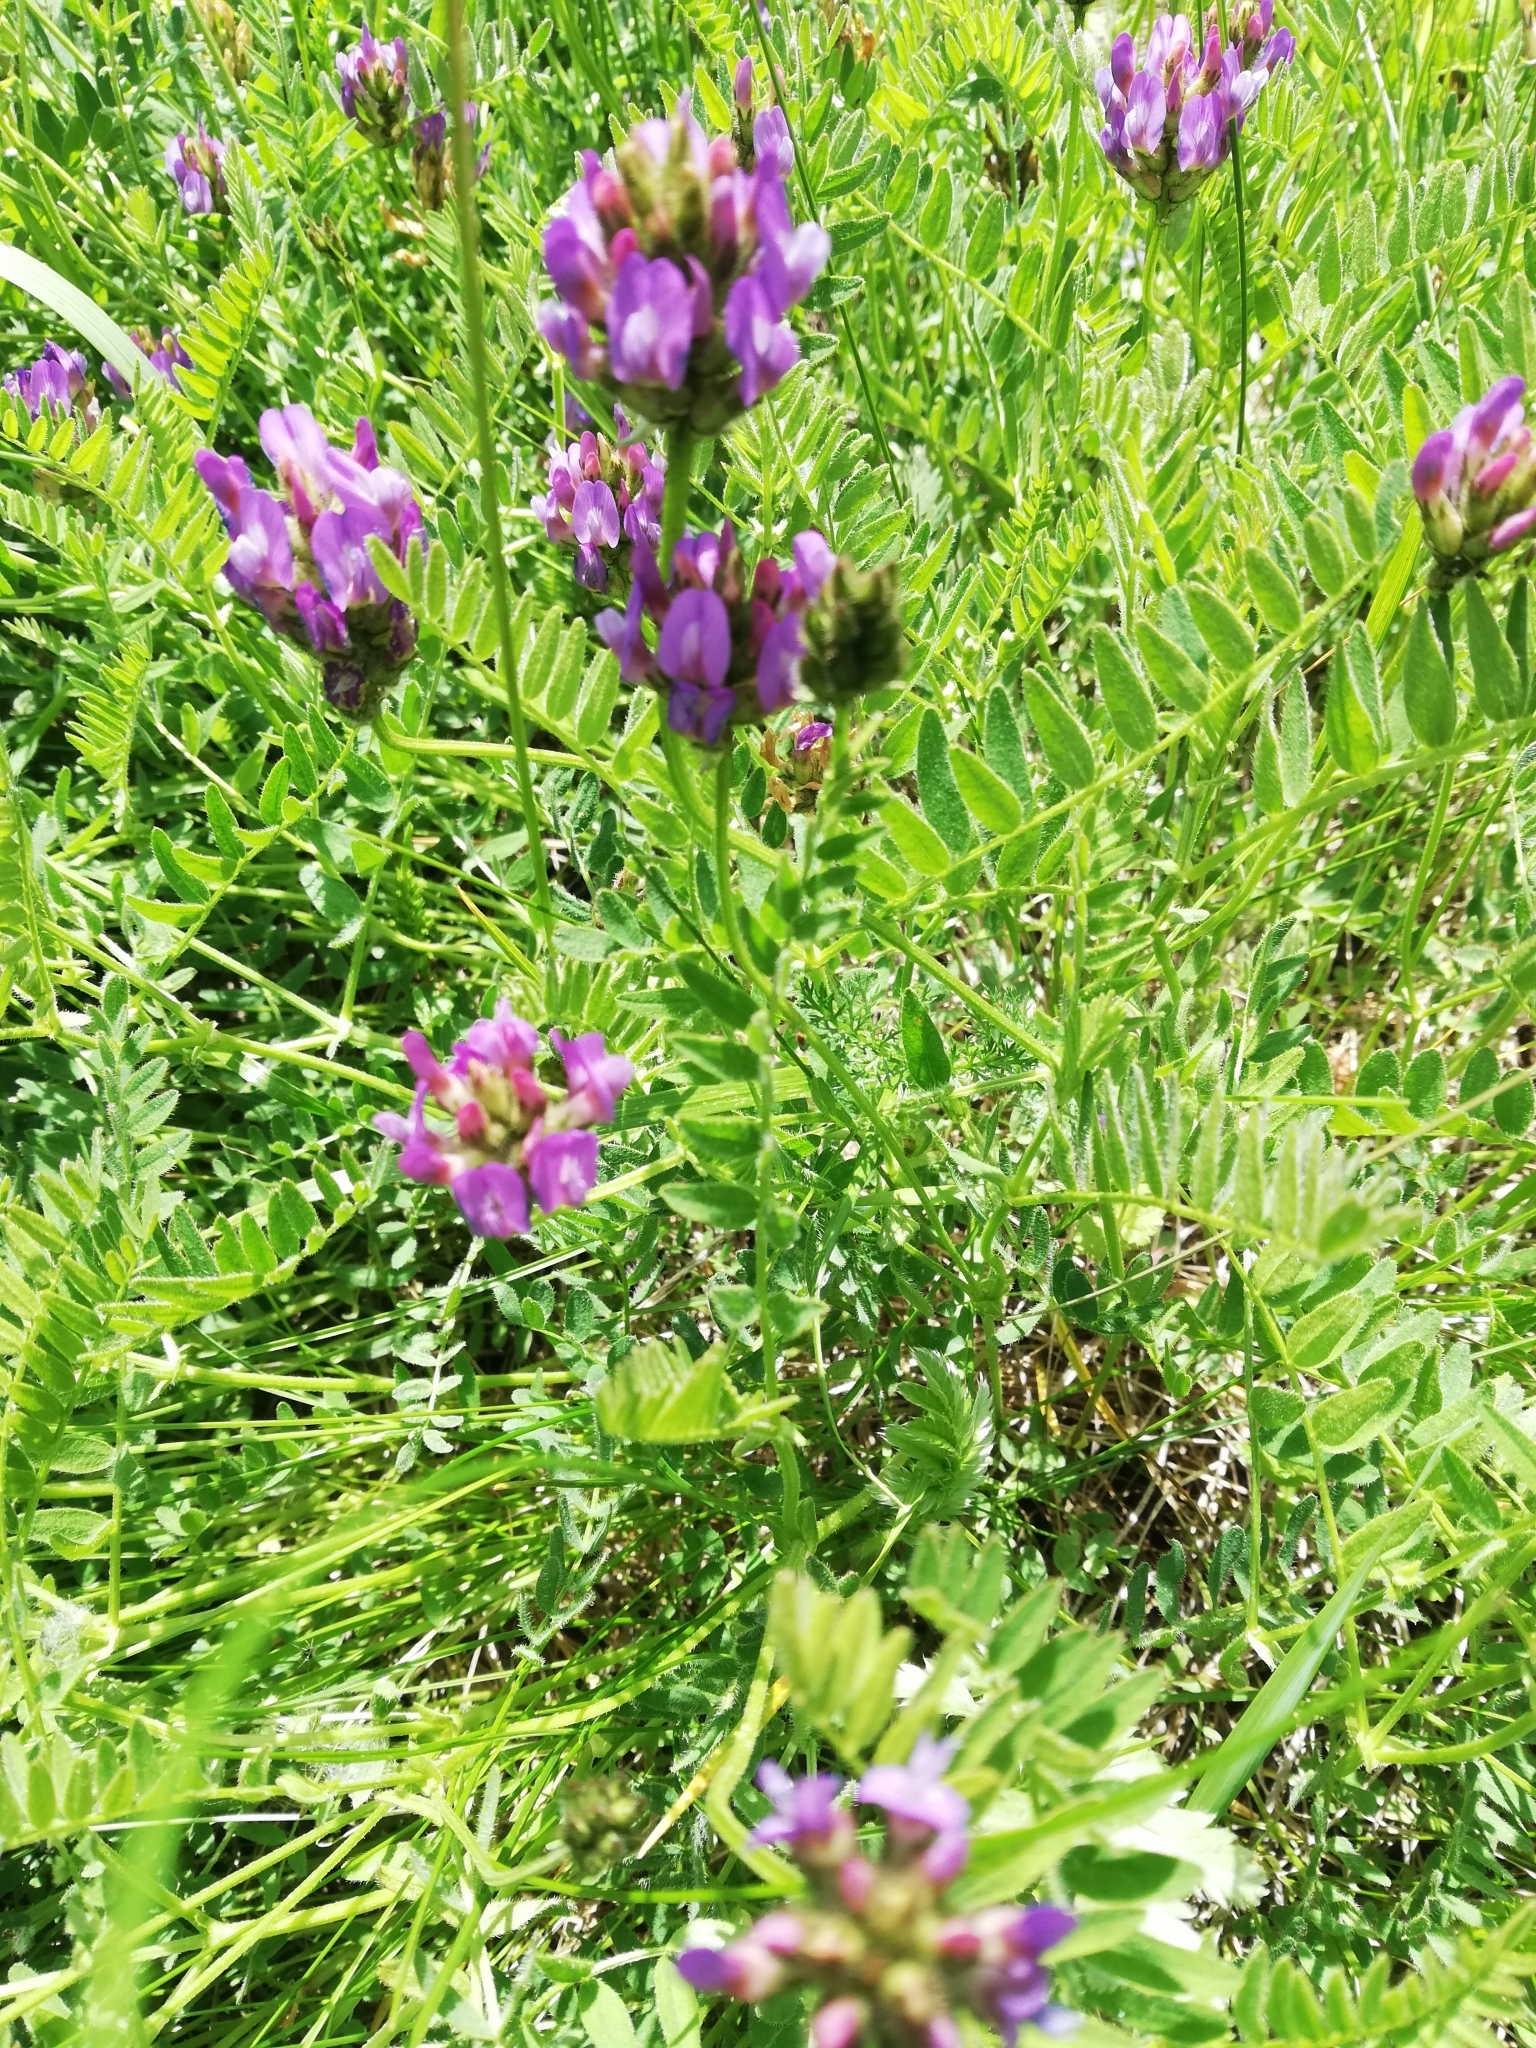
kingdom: Plantae
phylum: Tracheophyta
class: Magnoliopsida
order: Fabales
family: Fabaceae
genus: Astragalus
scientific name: Astragalus danicus
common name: Purple milk-vetch
